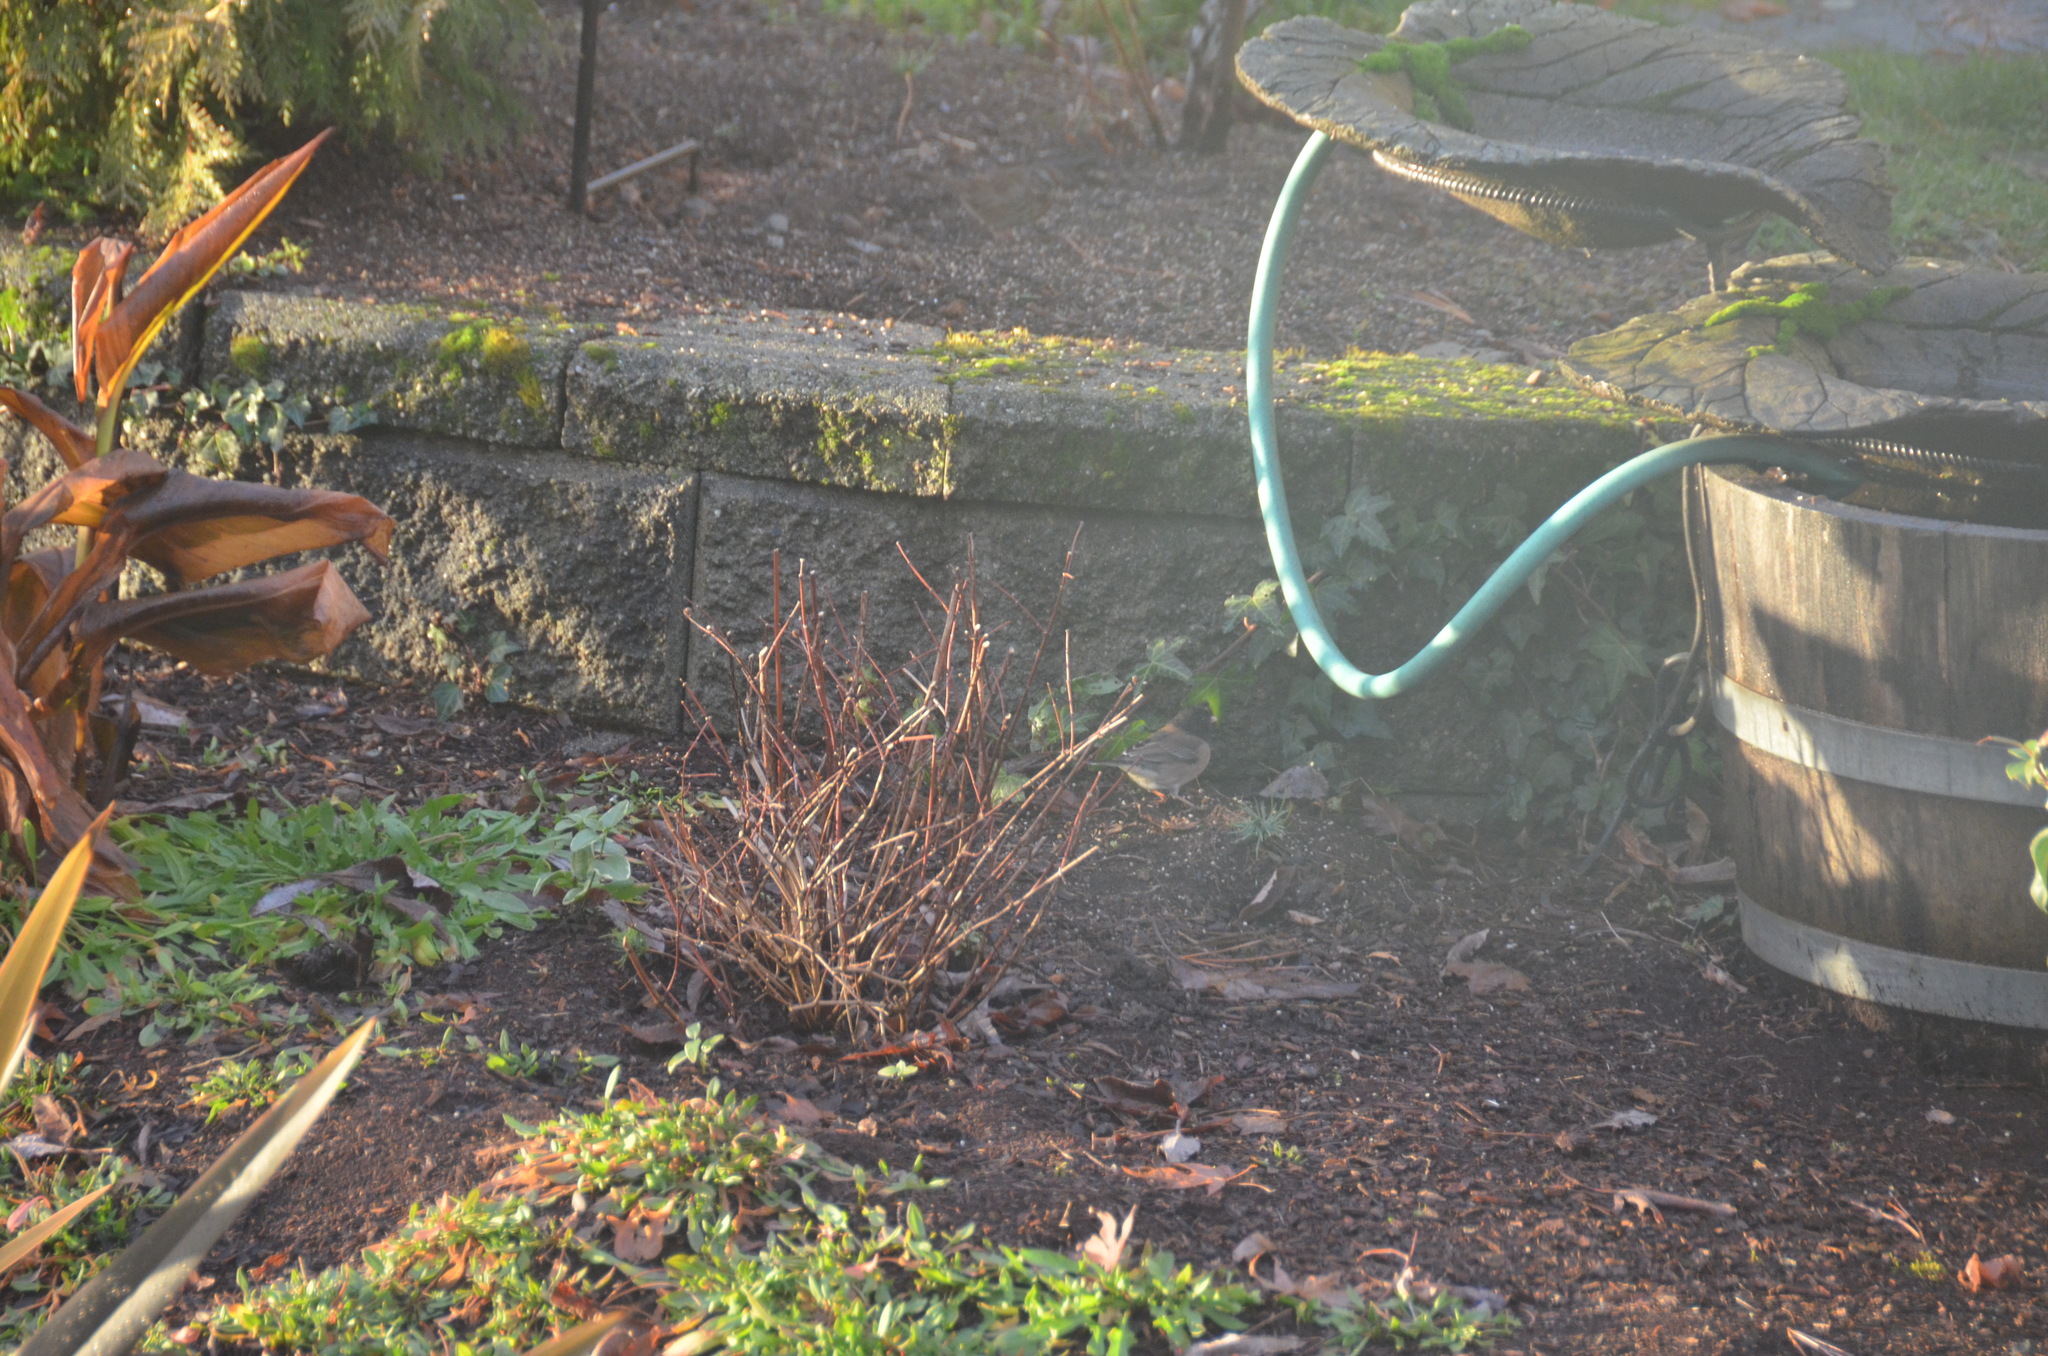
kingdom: Animalia
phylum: Chordata
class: Aves
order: Passeriformes
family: Passerellidae
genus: Junco
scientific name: Junco hyemalis
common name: Dark-eyed junco
